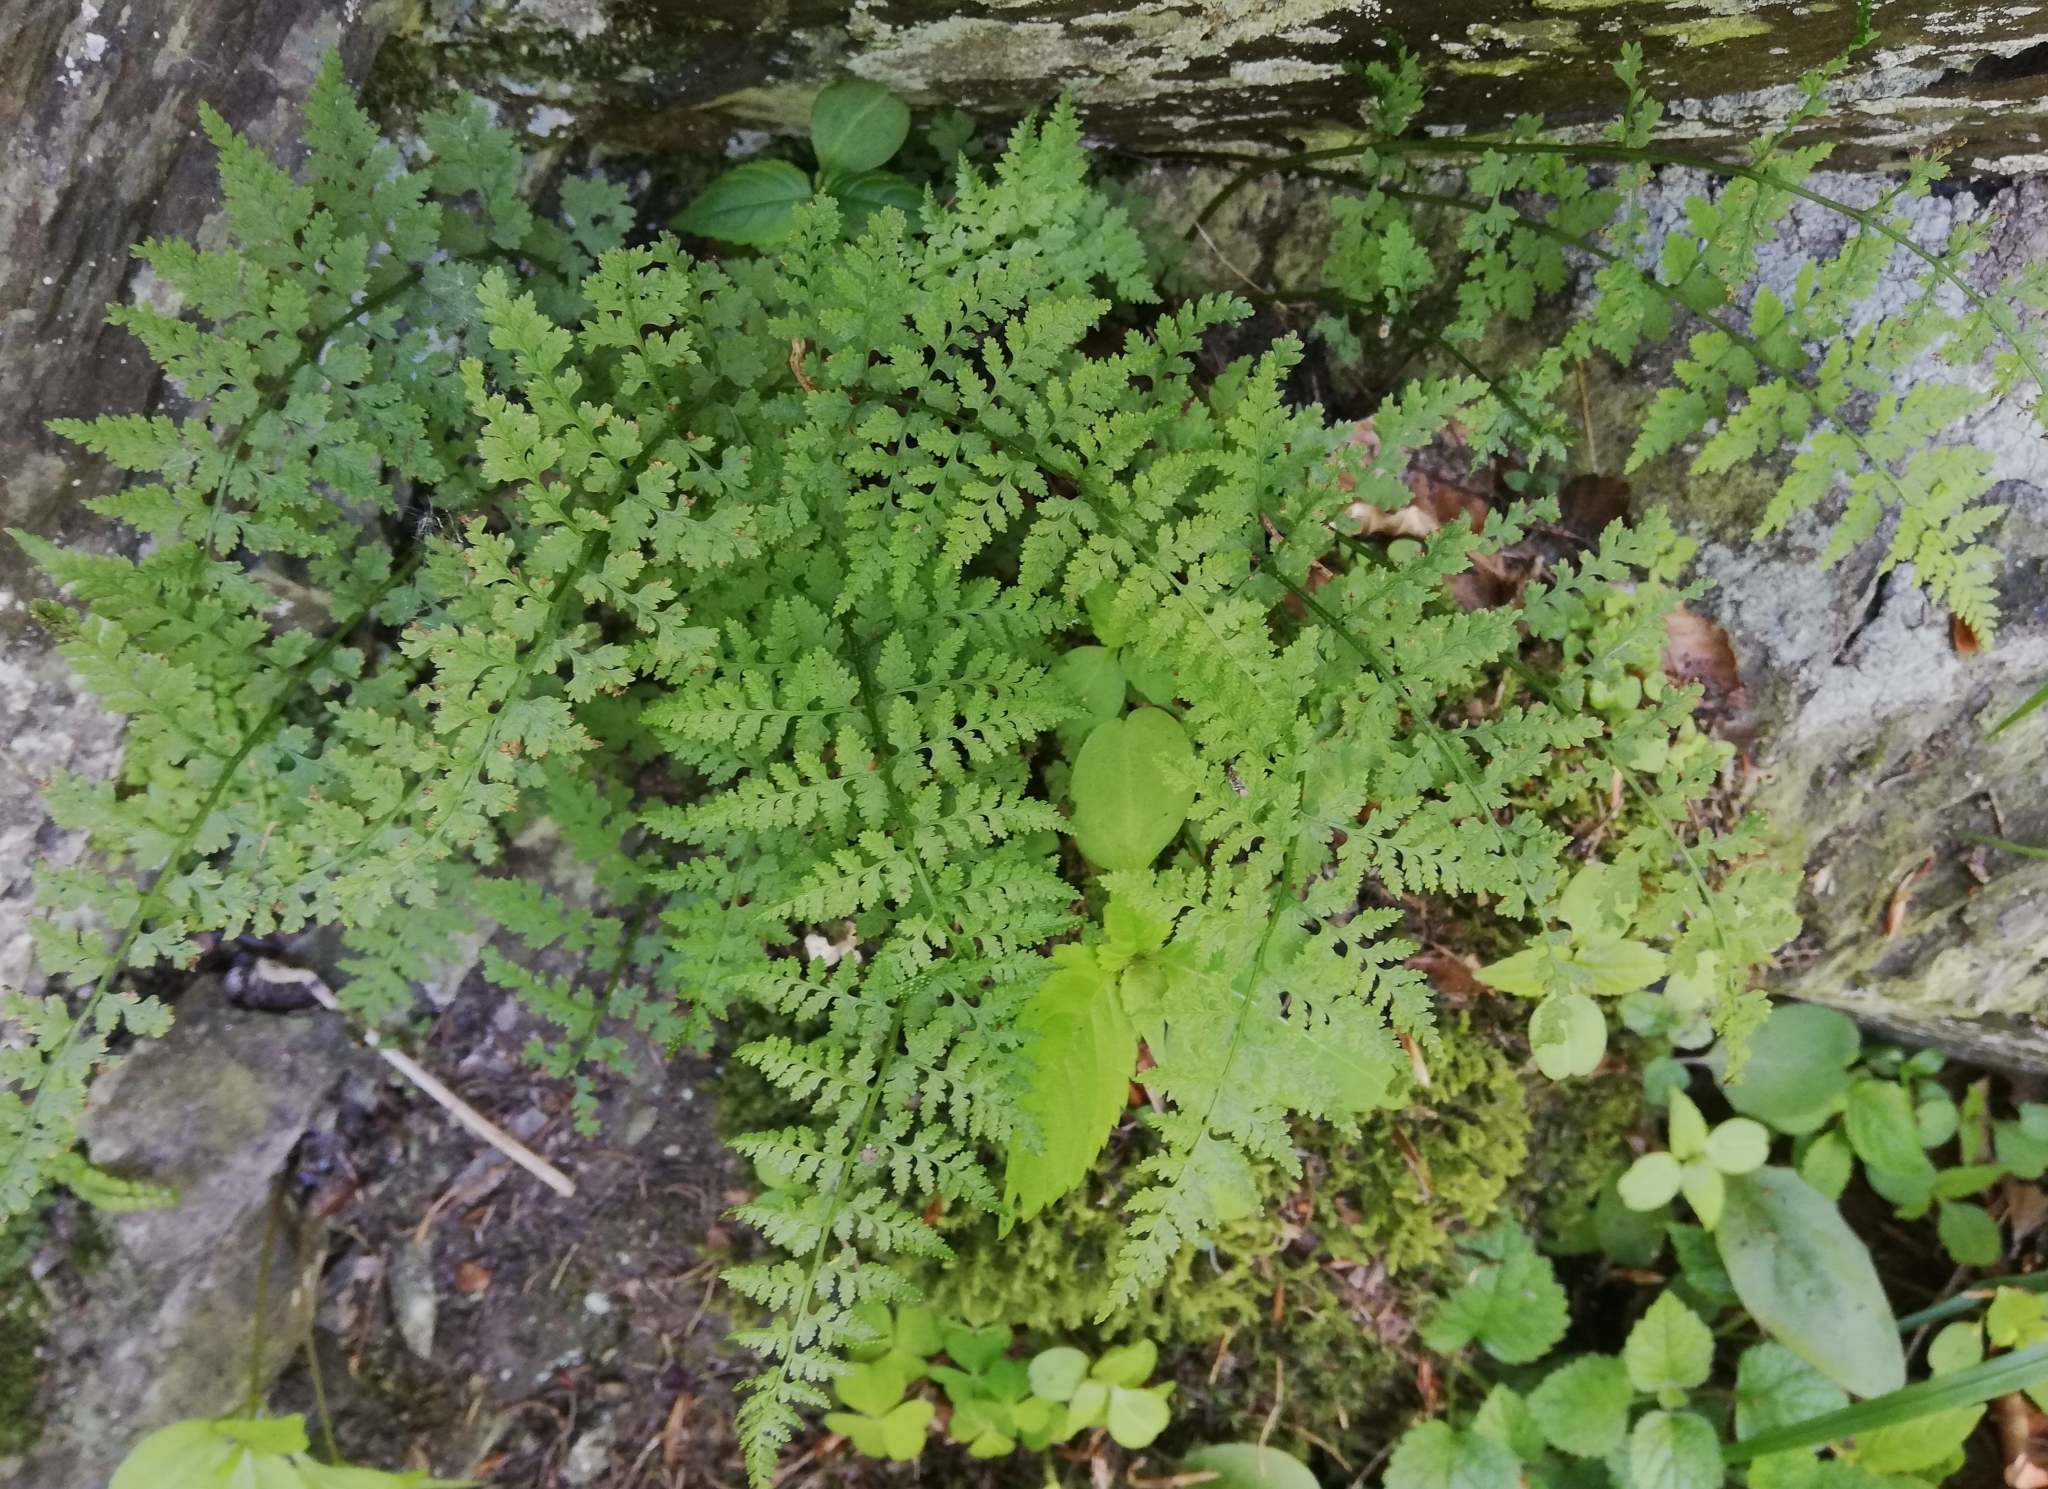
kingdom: Plantae
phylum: Tracheophyta
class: Polypodiopsida
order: Polypodiales
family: Cystopteridaceae
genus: Cystopteris
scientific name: Cystopteris fragilis
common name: Brittle bladder fern
